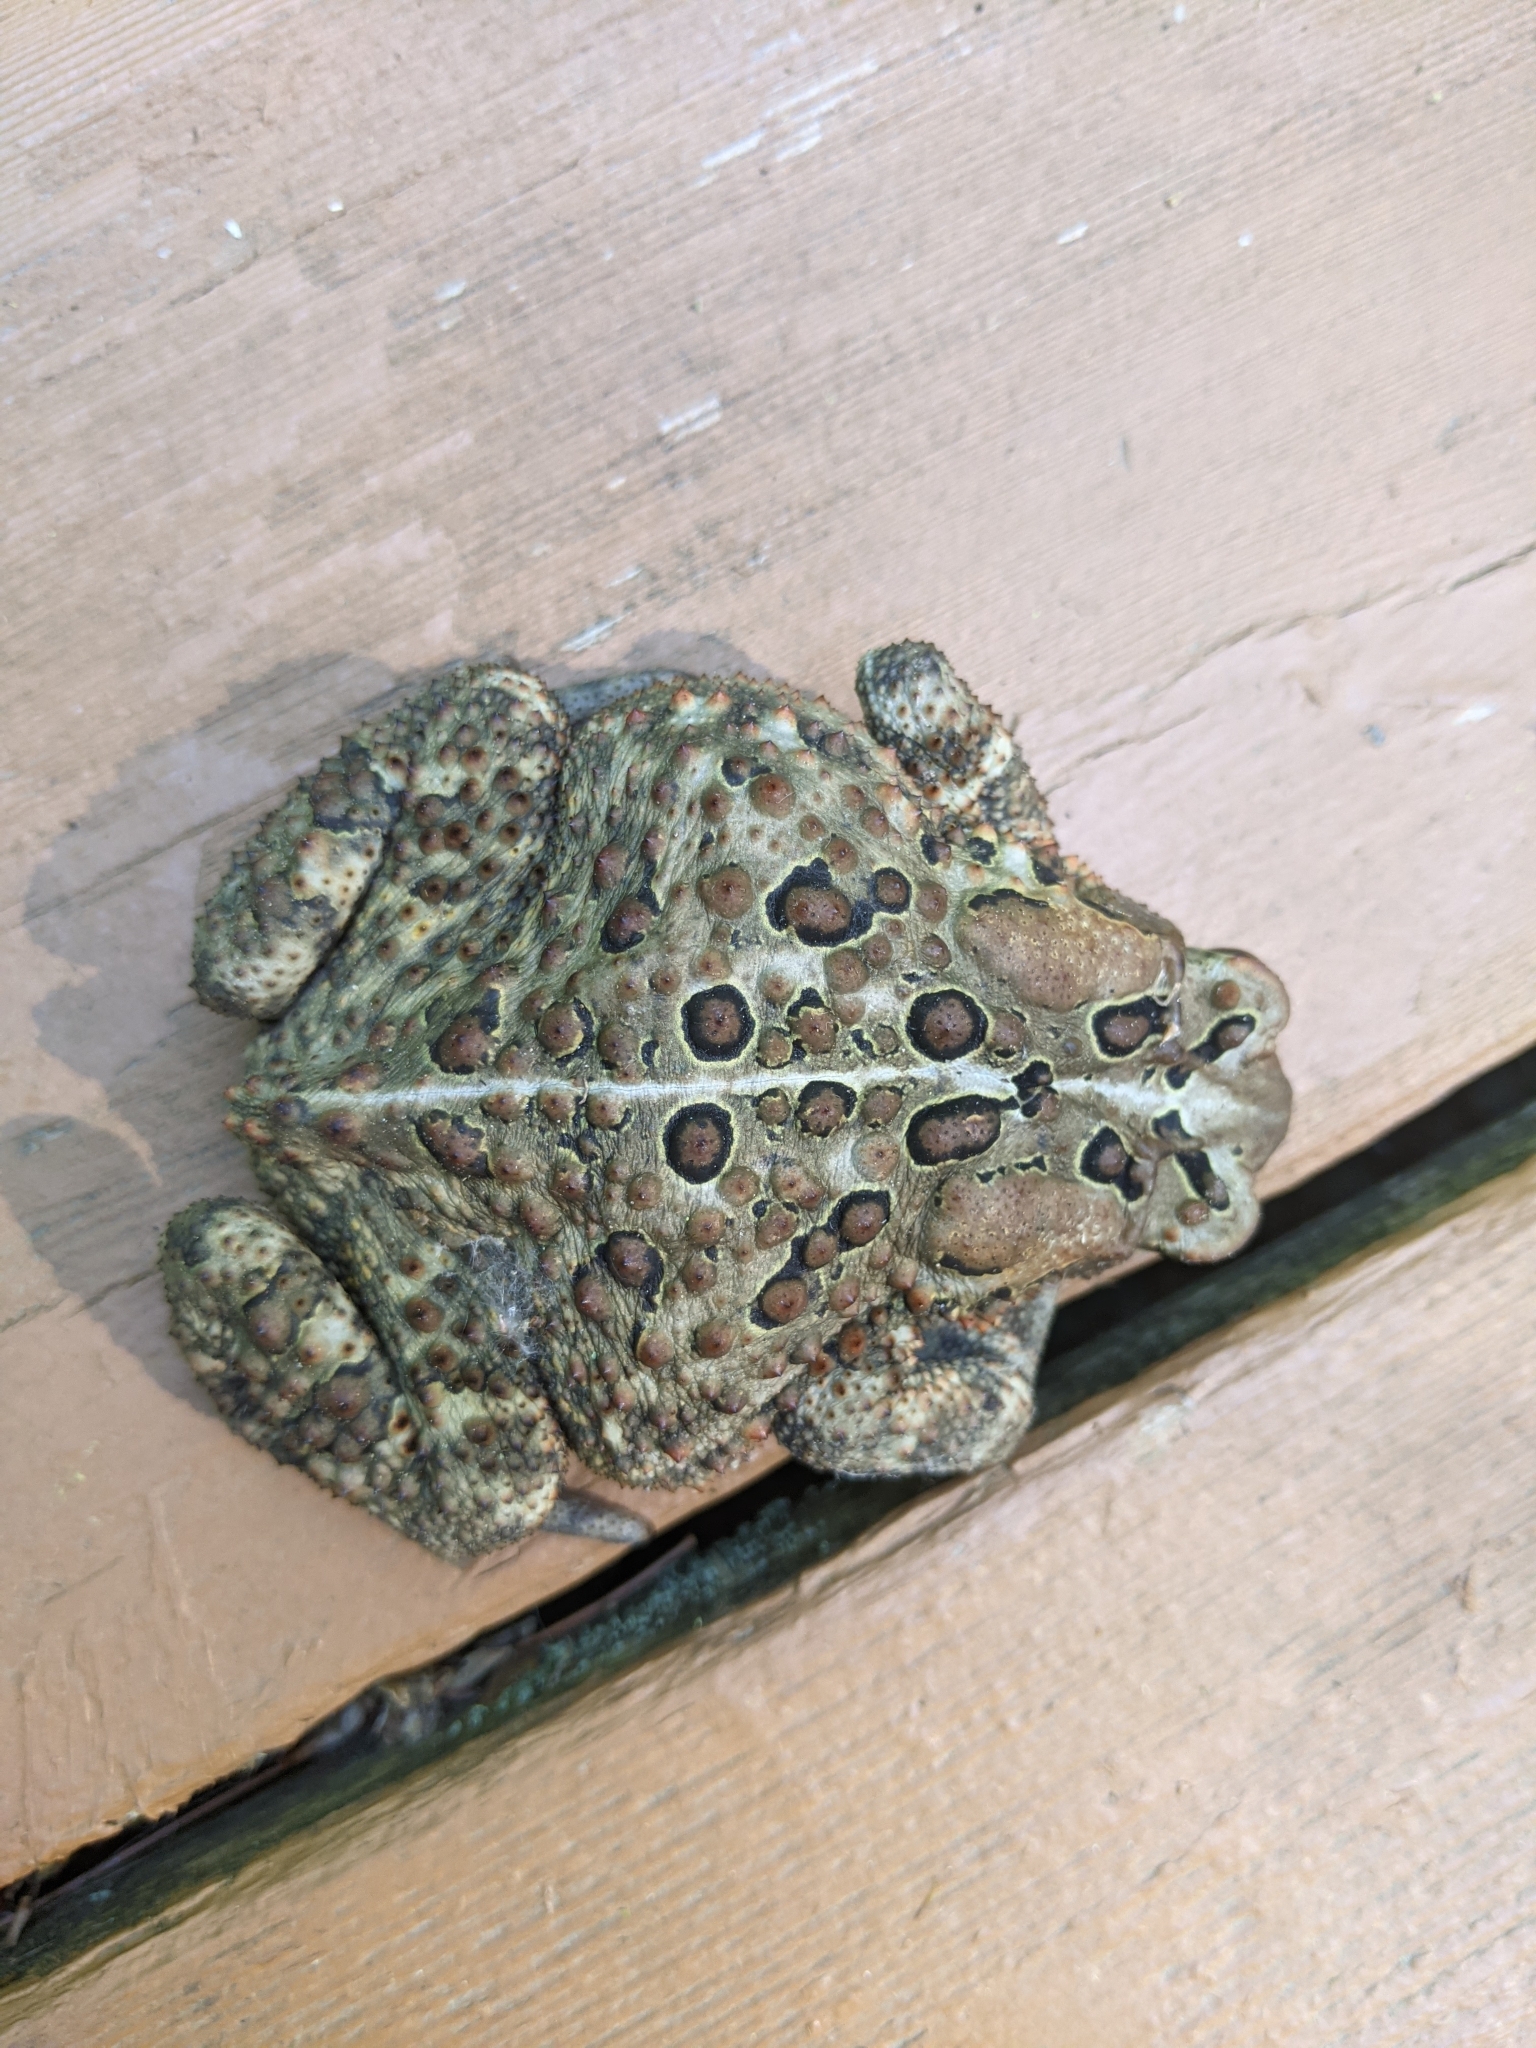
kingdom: Animalia
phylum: Chordata
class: Amphibia
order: Anura
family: Bufonidae
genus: Anaxyrus
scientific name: Anaxyrus americanus
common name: American toad
